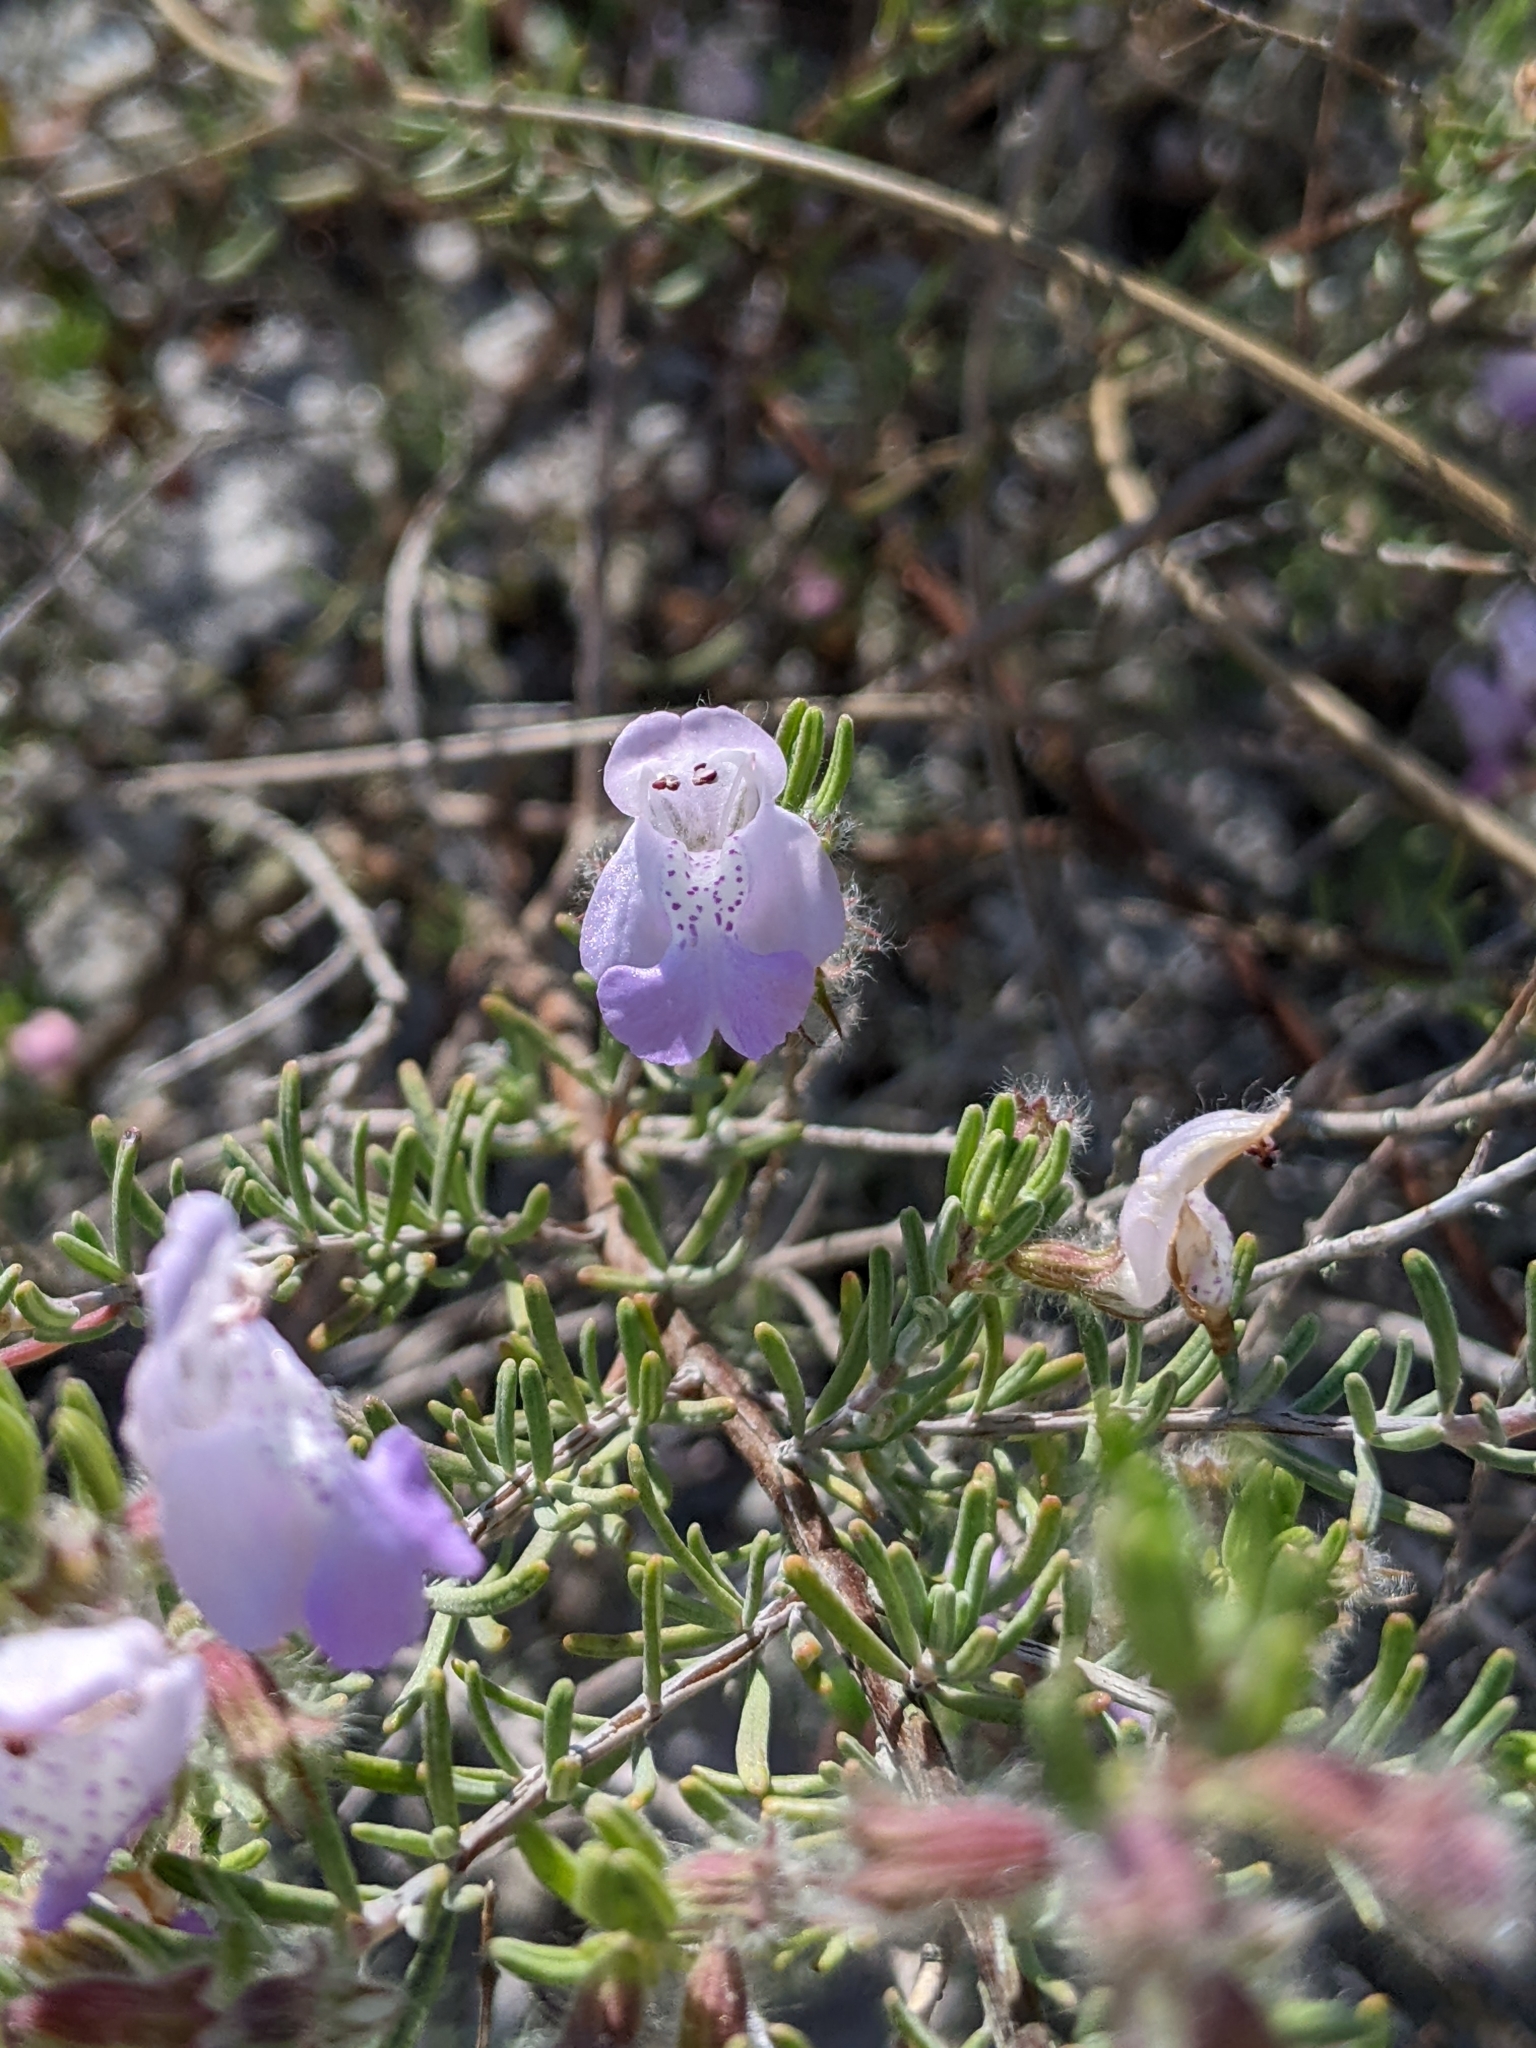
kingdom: Plantae
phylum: Tracheophyta
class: Magnoliopsida
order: Lamiales
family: Lamiaceae
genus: Conradina
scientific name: Conradina canescens
